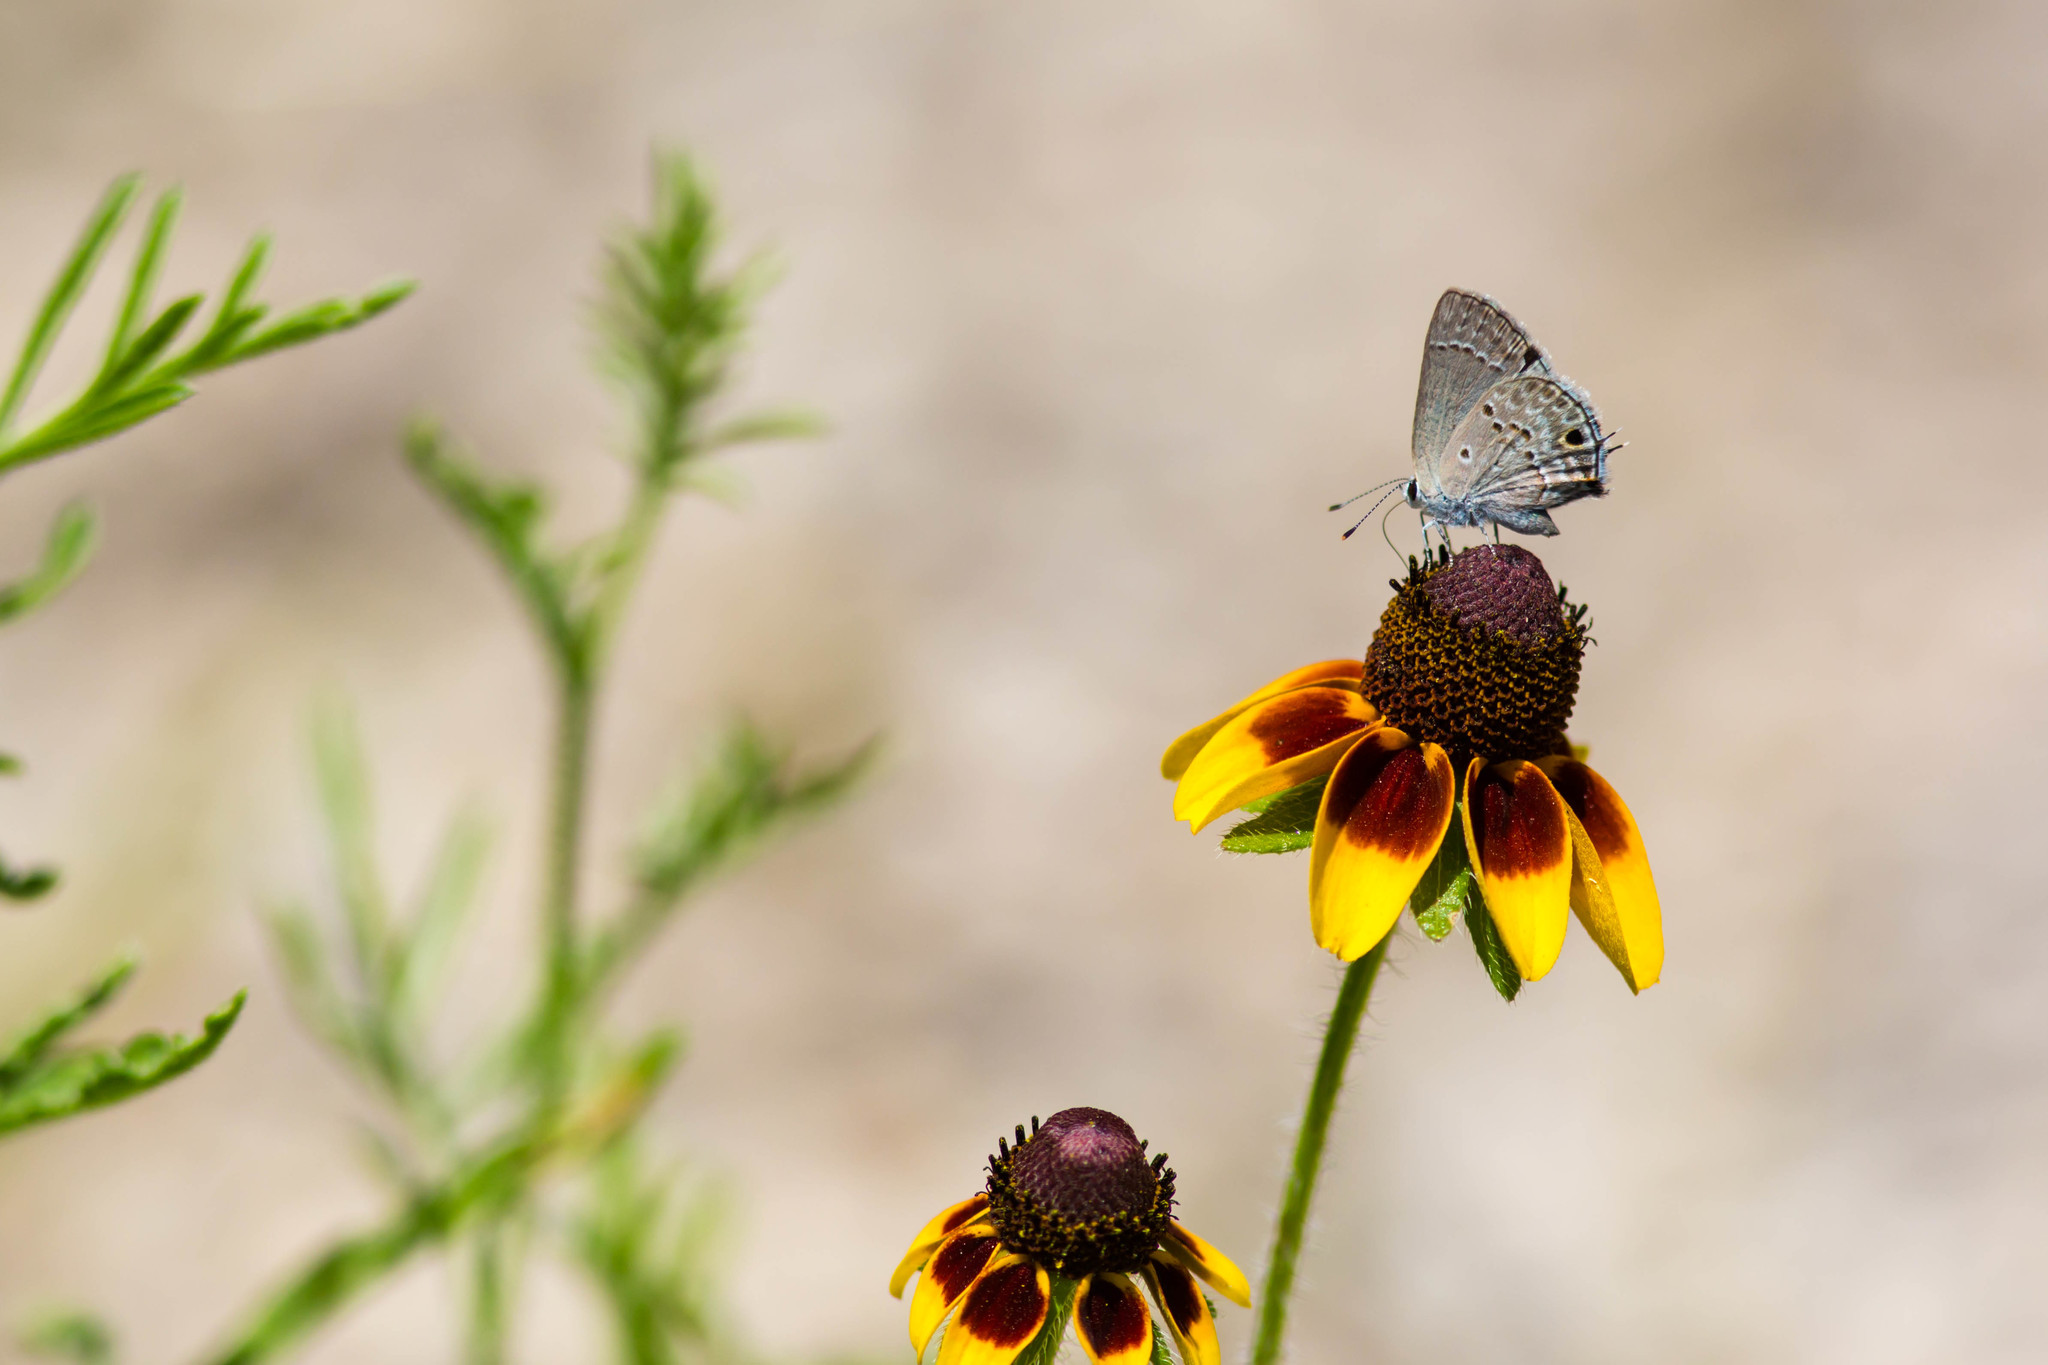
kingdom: Animalia
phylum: Arthropoda
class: Insecta
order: Lepidoptera
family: Lycaenidae
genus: Callicista
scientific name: Callicista columella
